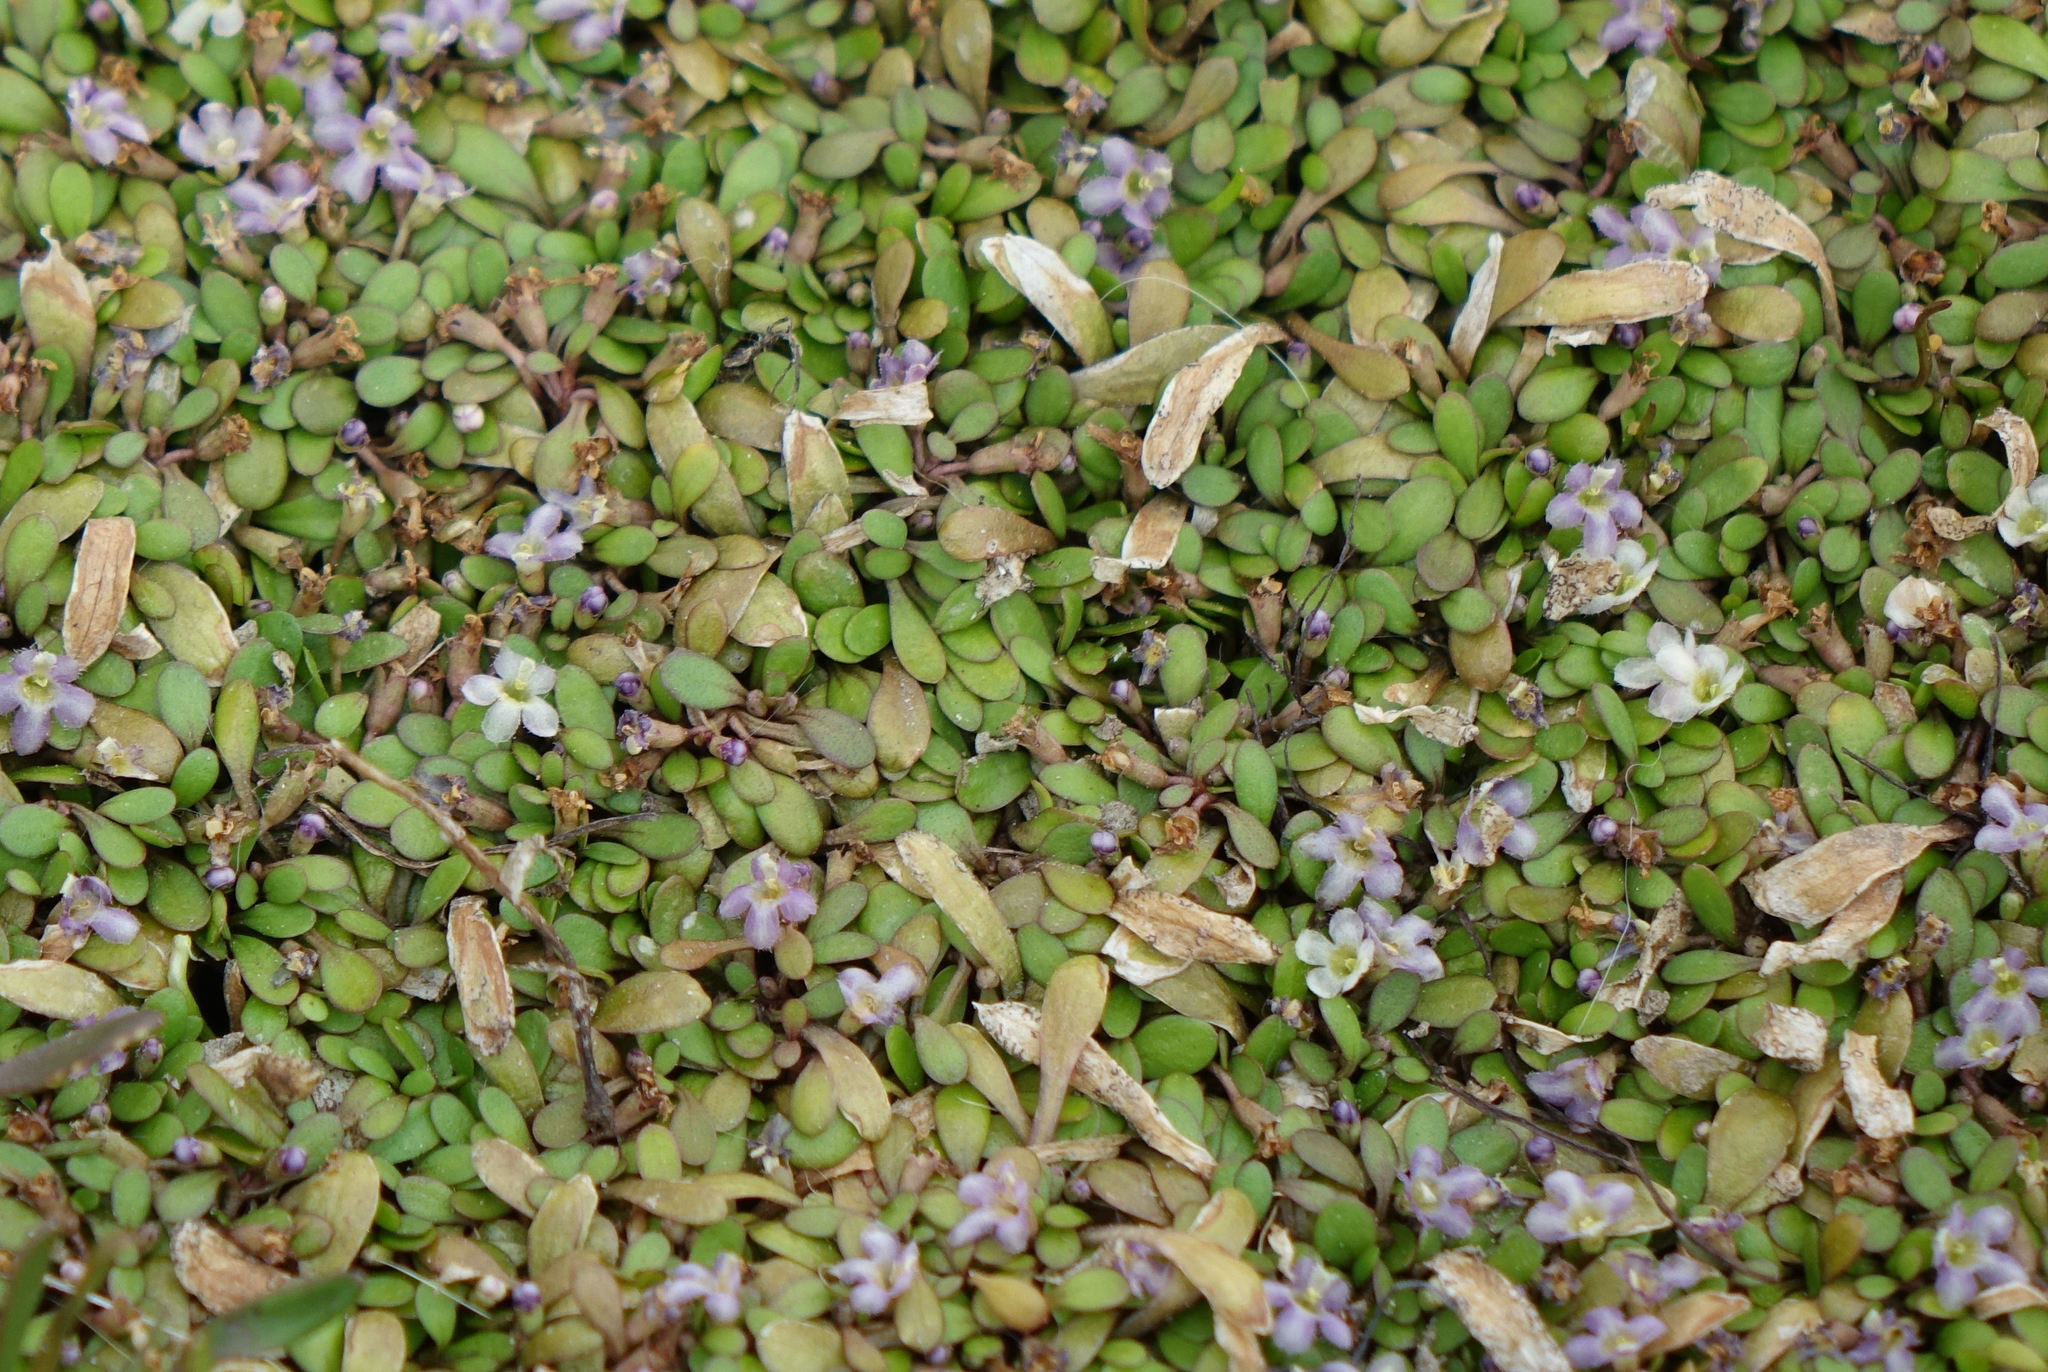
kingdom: Plantae
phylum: Tracheophyta
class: Magnoliopsida
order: Lamiales
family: Phrymaceae
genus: Glossostigma
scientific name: Glossostigma elatinoides
